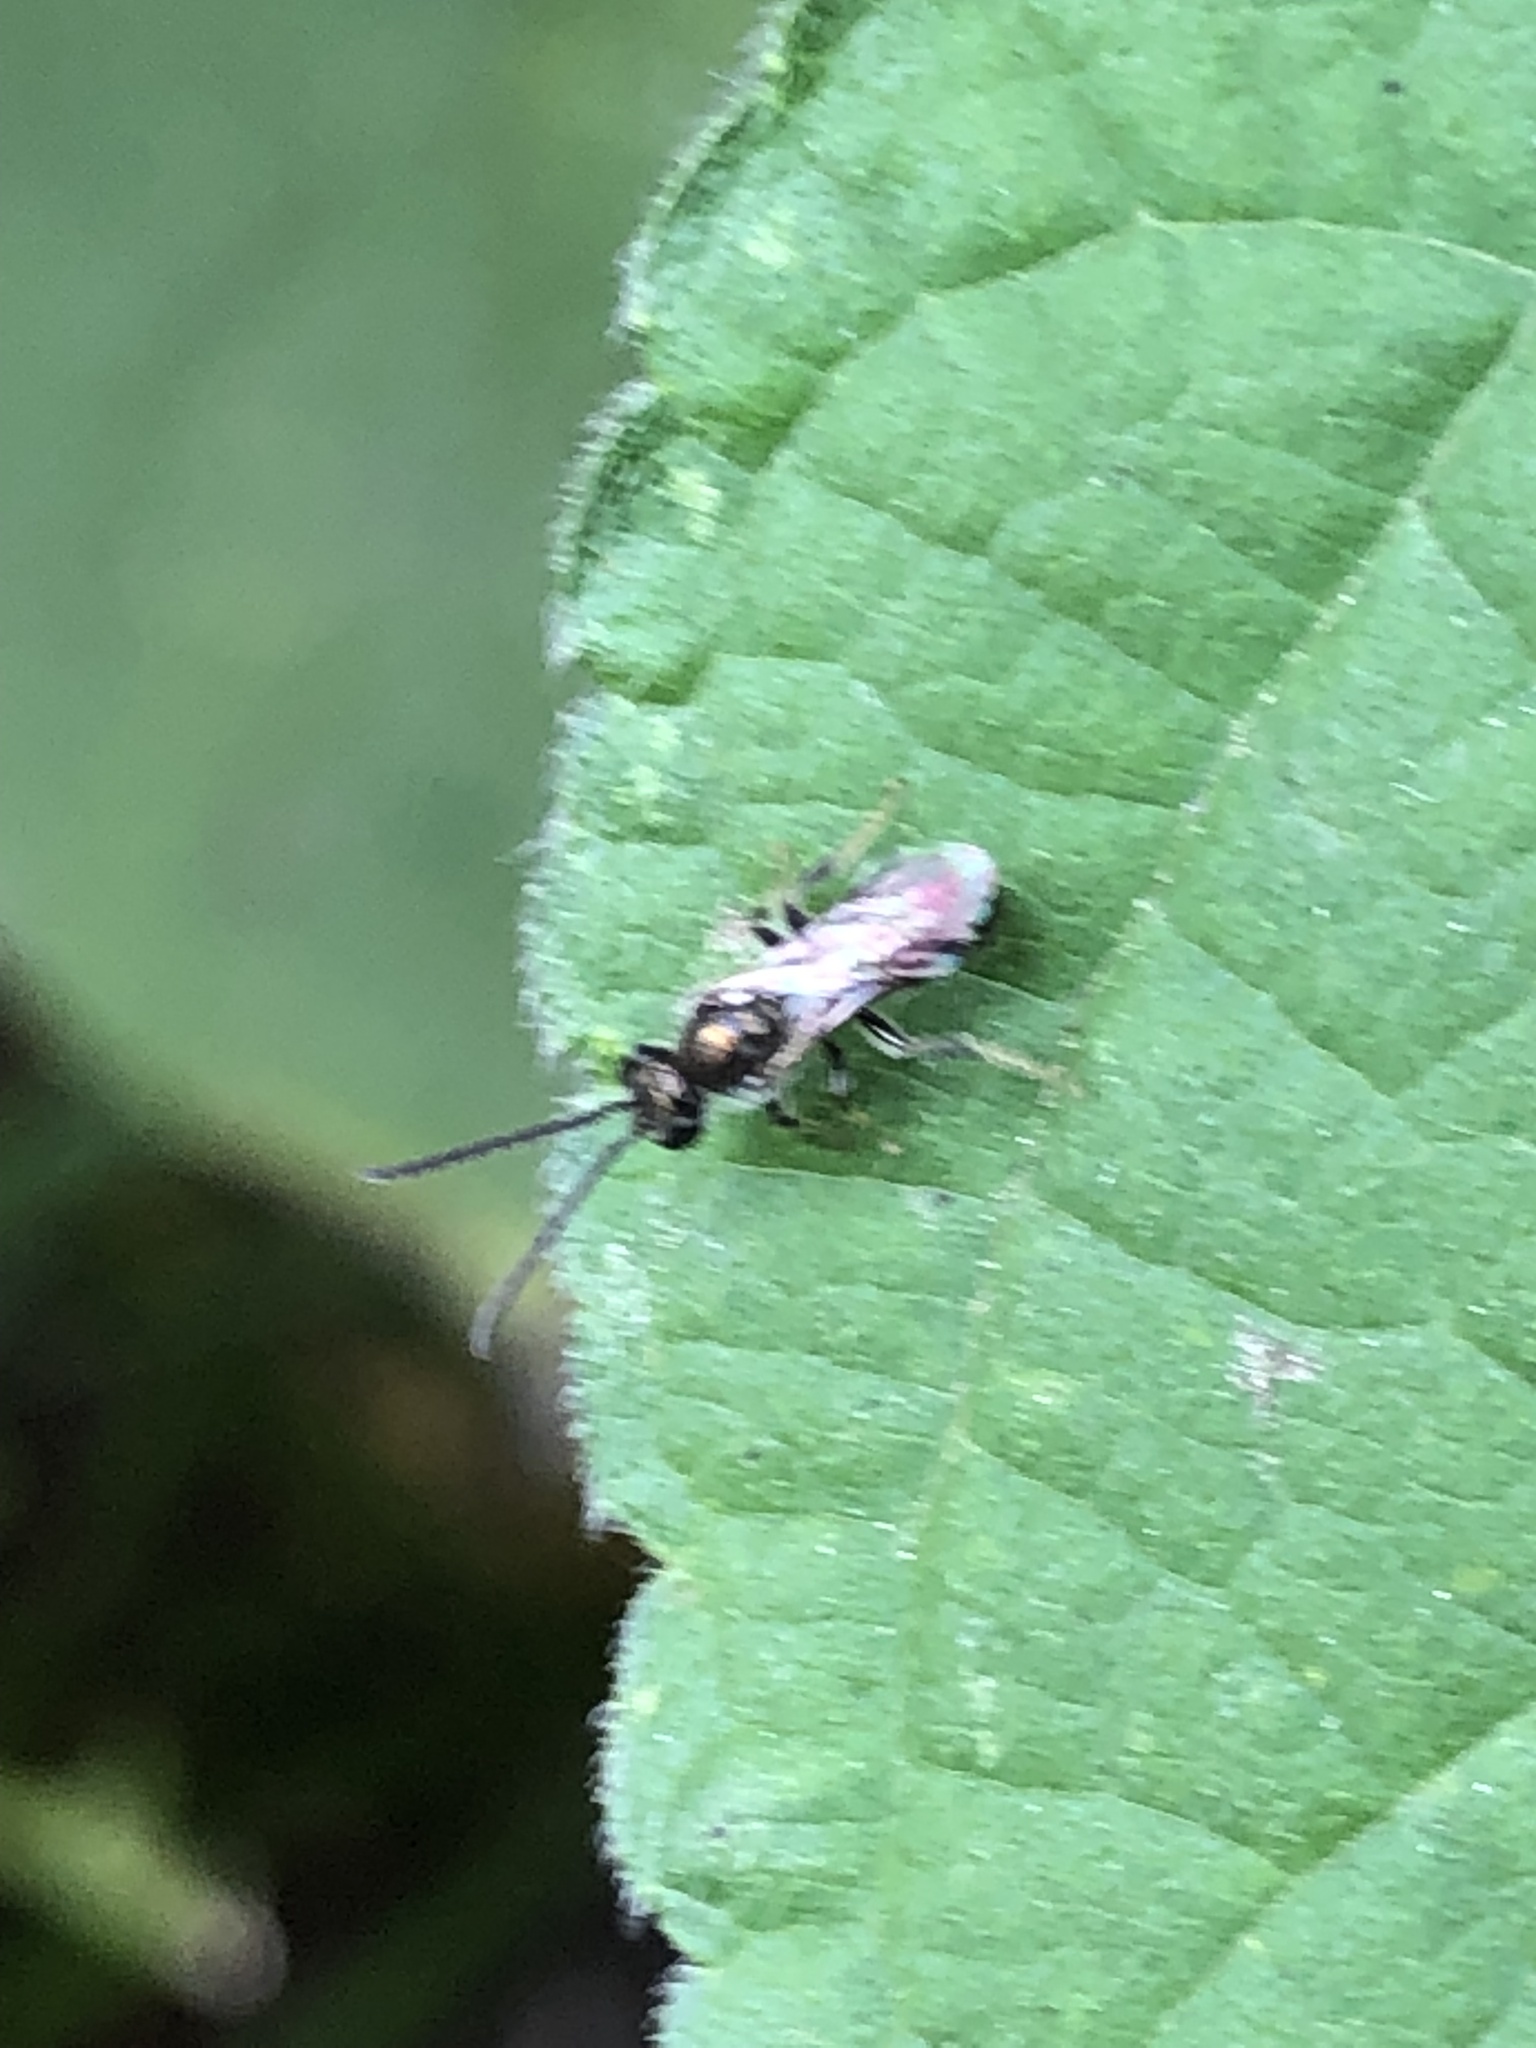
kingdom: Animalia
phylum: Arthropoda
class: Insecta
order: Hymenoptera
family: Halictidae
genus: Dialictus
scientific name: Dialictus
